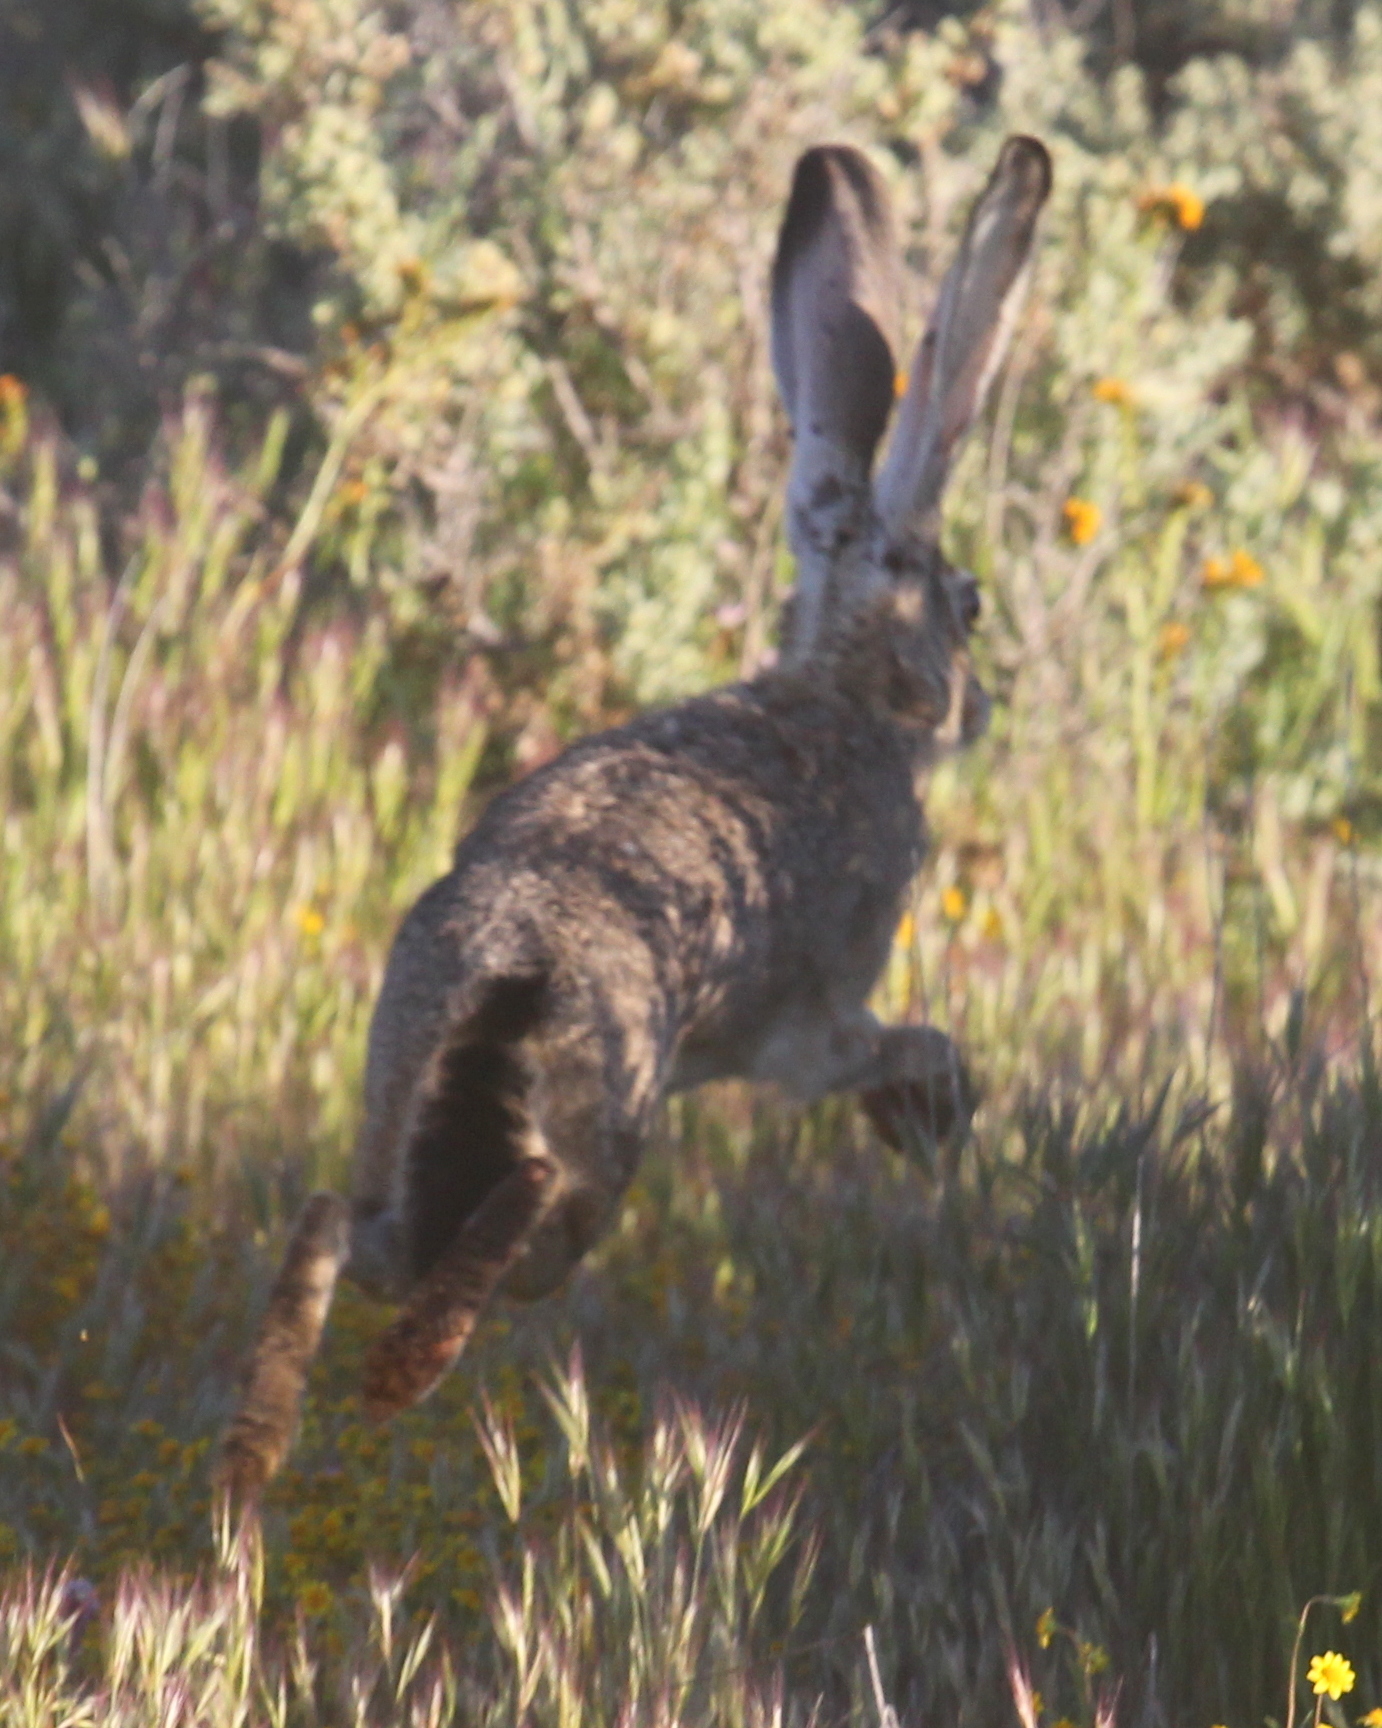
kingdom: Animalia
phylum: Chordata
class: Mammalia
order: Lagomorpha
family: Leporidae
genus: Lepus
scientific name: Lepus californicus
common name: Black-tailed jackrabbit
